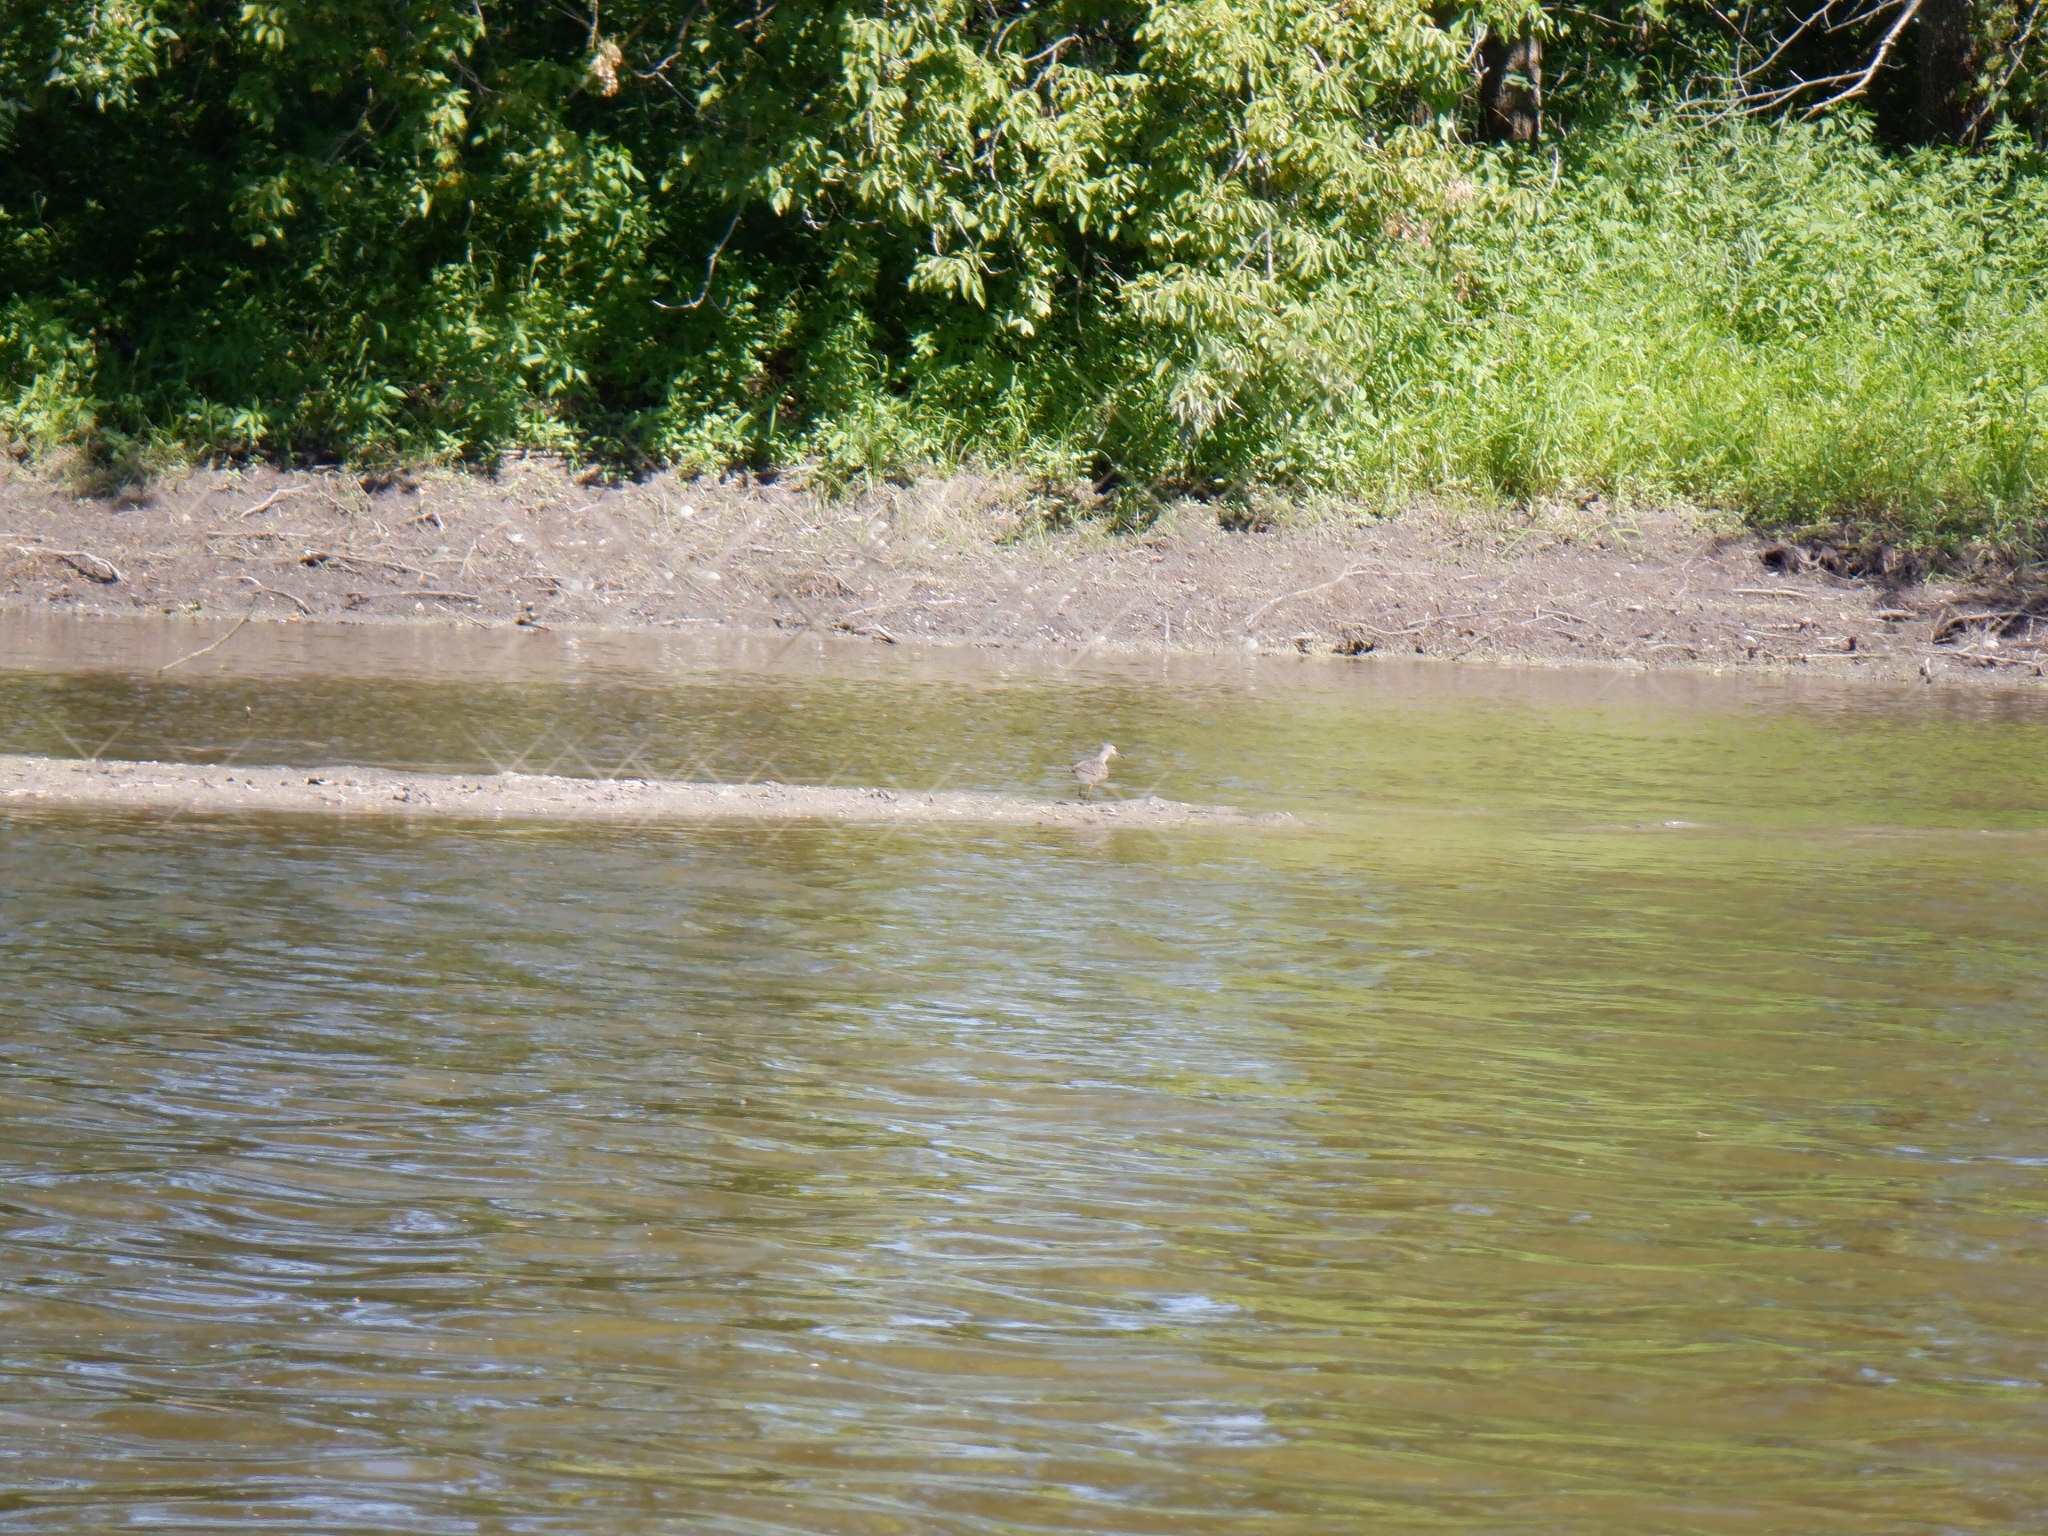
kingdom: Animalia
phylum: Chordata
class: Aves
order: Charadriiformes
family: Scolopacidae
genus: Tringa
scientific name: Tringa flavipes
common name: Lesser yellowlegs
